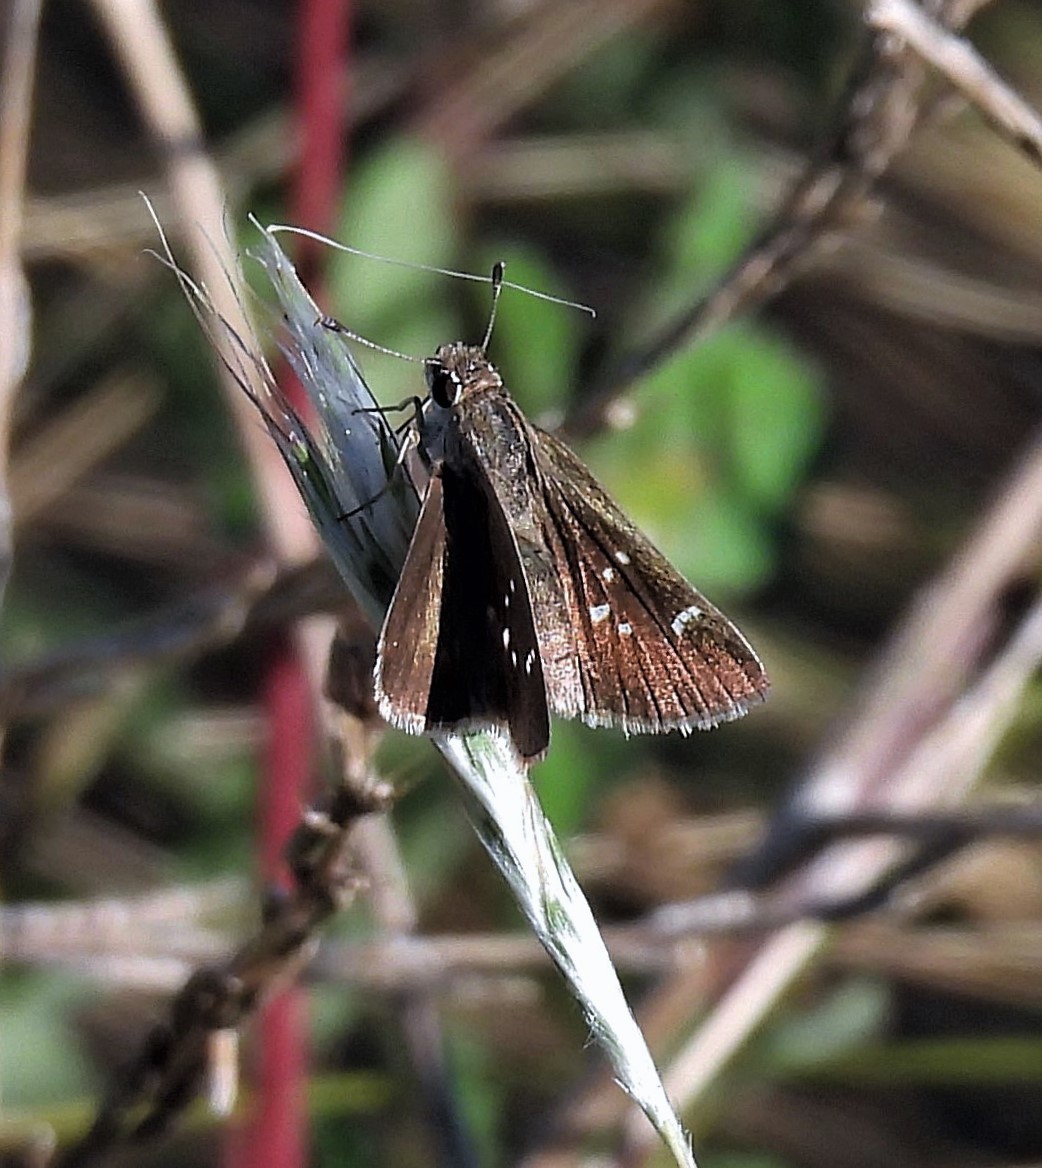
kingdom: Animalia
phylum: Arthropoda
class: Insecta
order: Lepidoptera
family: Hesperiidae
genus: Lerodea
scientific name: Lerodea eufala
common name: Eufala skipper
